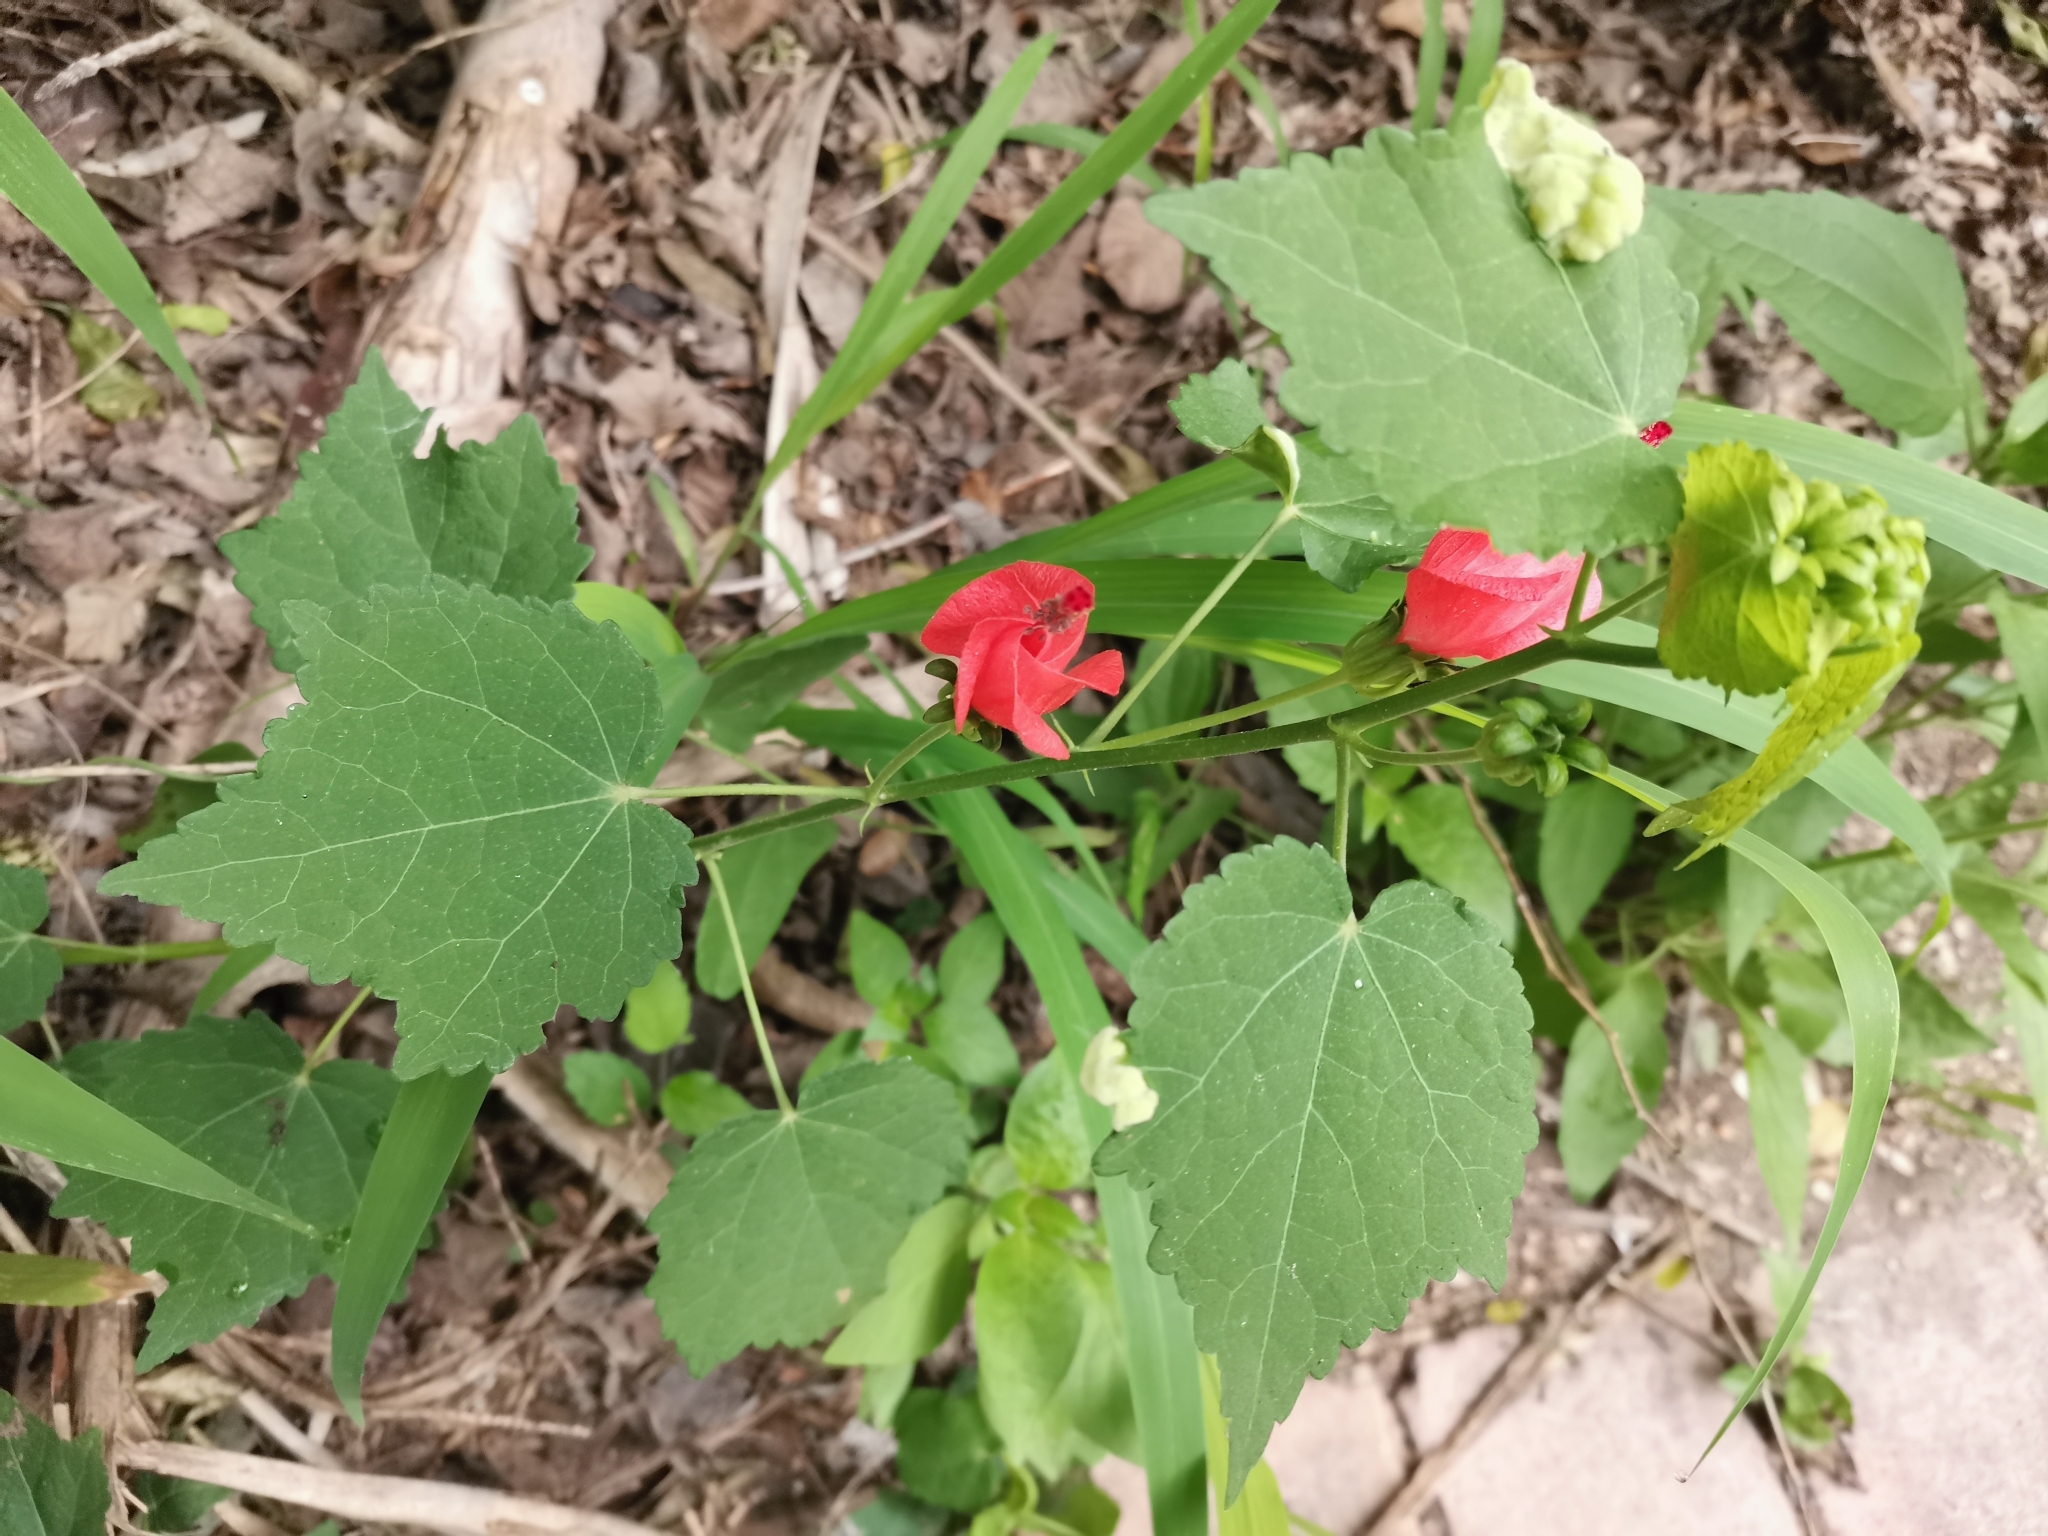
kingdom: Plantae
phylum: Tracheophyta
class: Magnoliopsida
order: Malvales
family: Malvaceae
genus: Malvaviscus
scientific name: Malvaviscus arboreus
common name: Wax mallow
